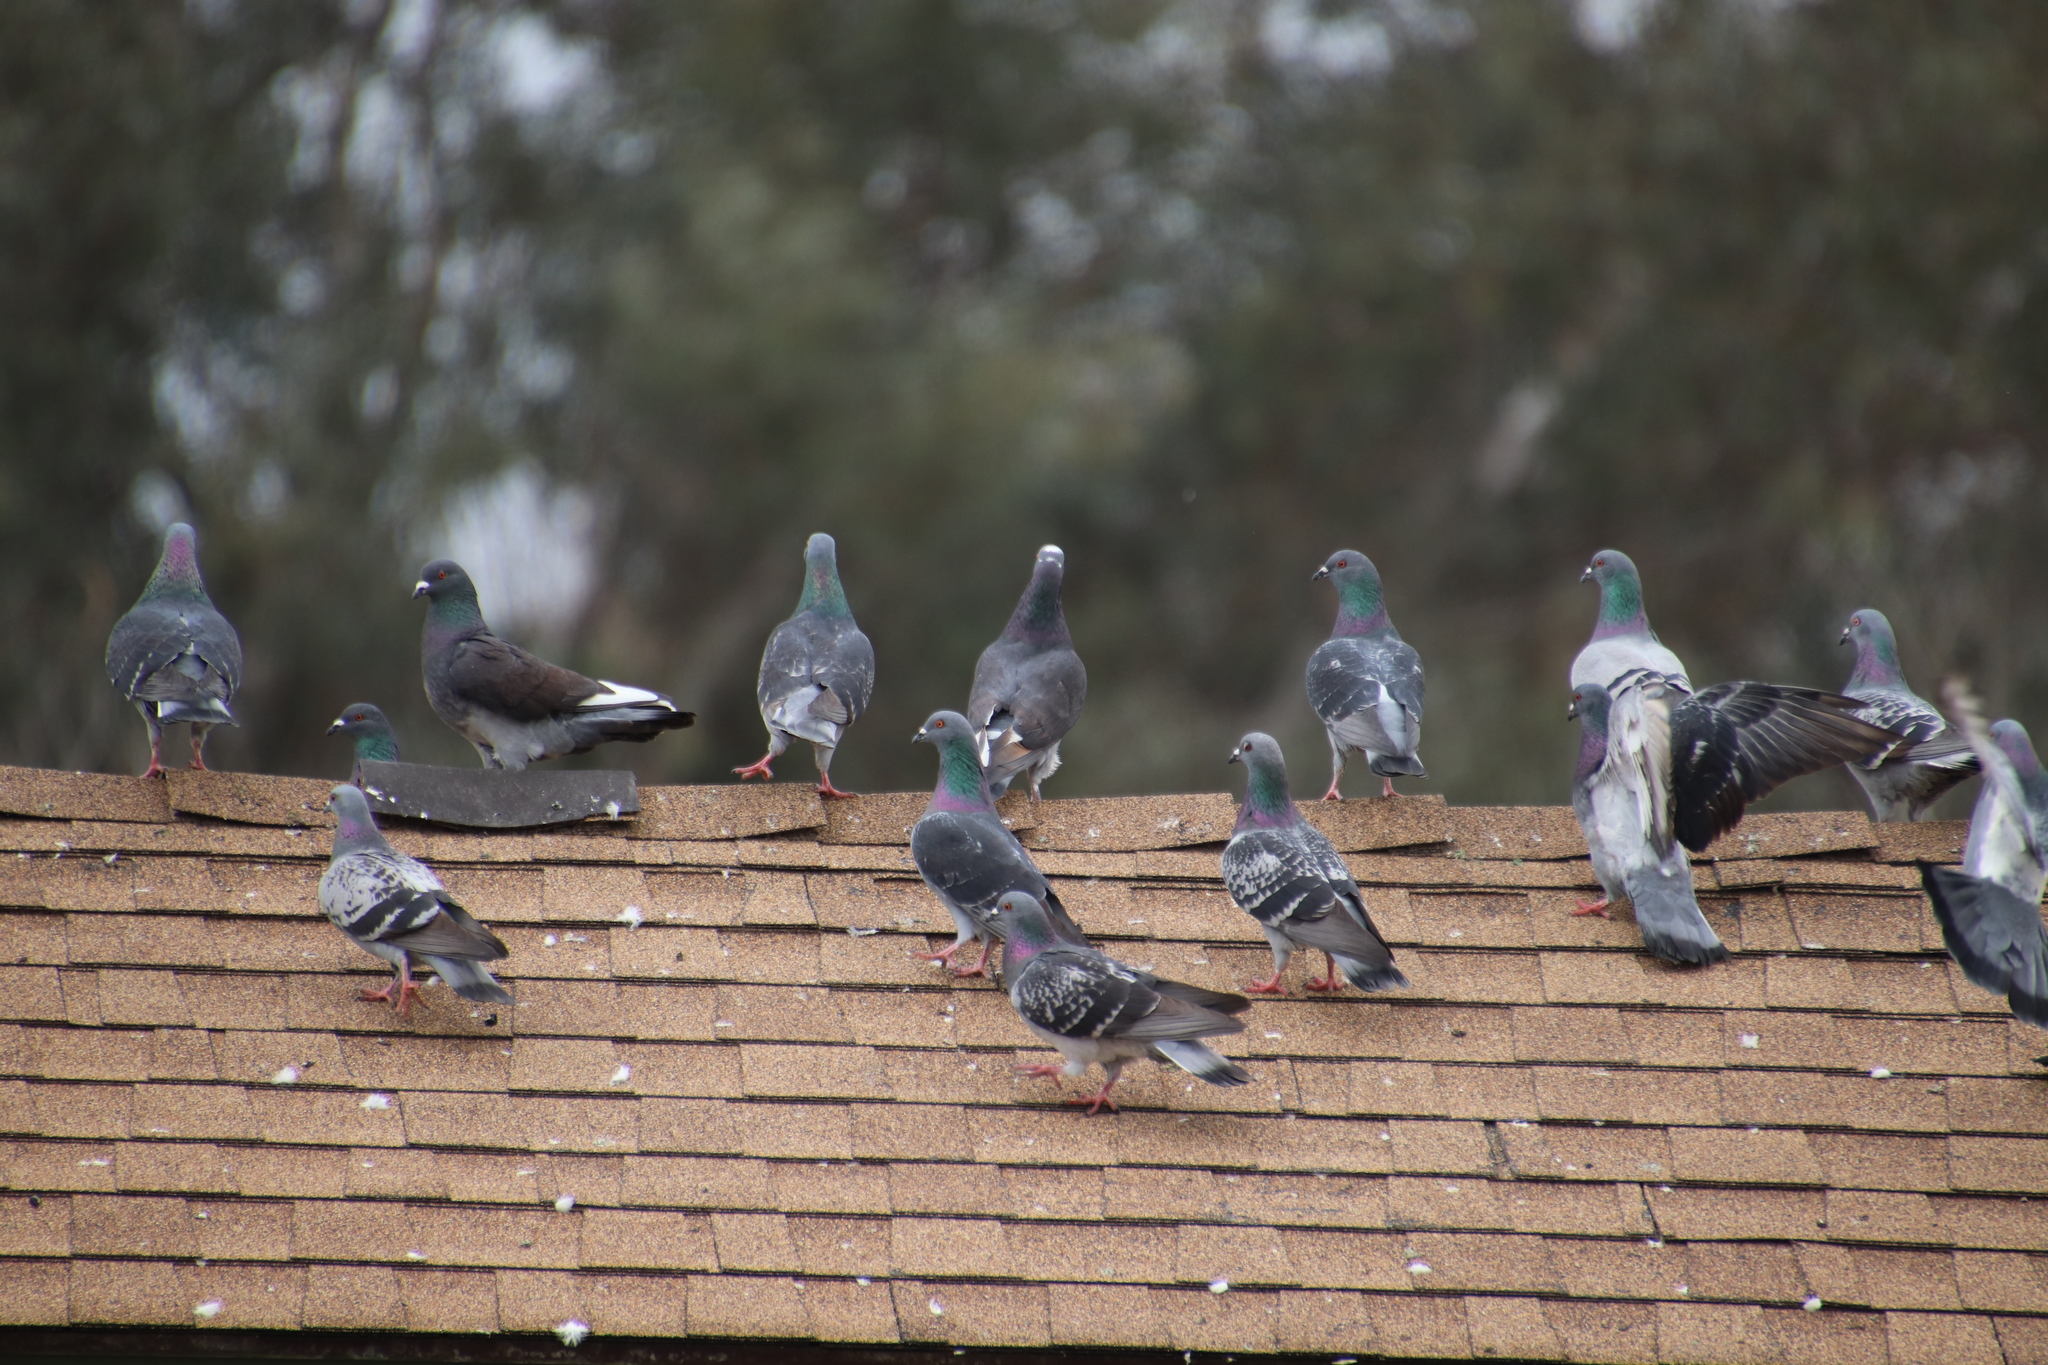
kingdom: Animalia
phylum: Chordata
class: Aves
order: Columbiformes
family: Columbidae
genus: Columba
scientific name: Columba livia
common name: Rock pigeon
